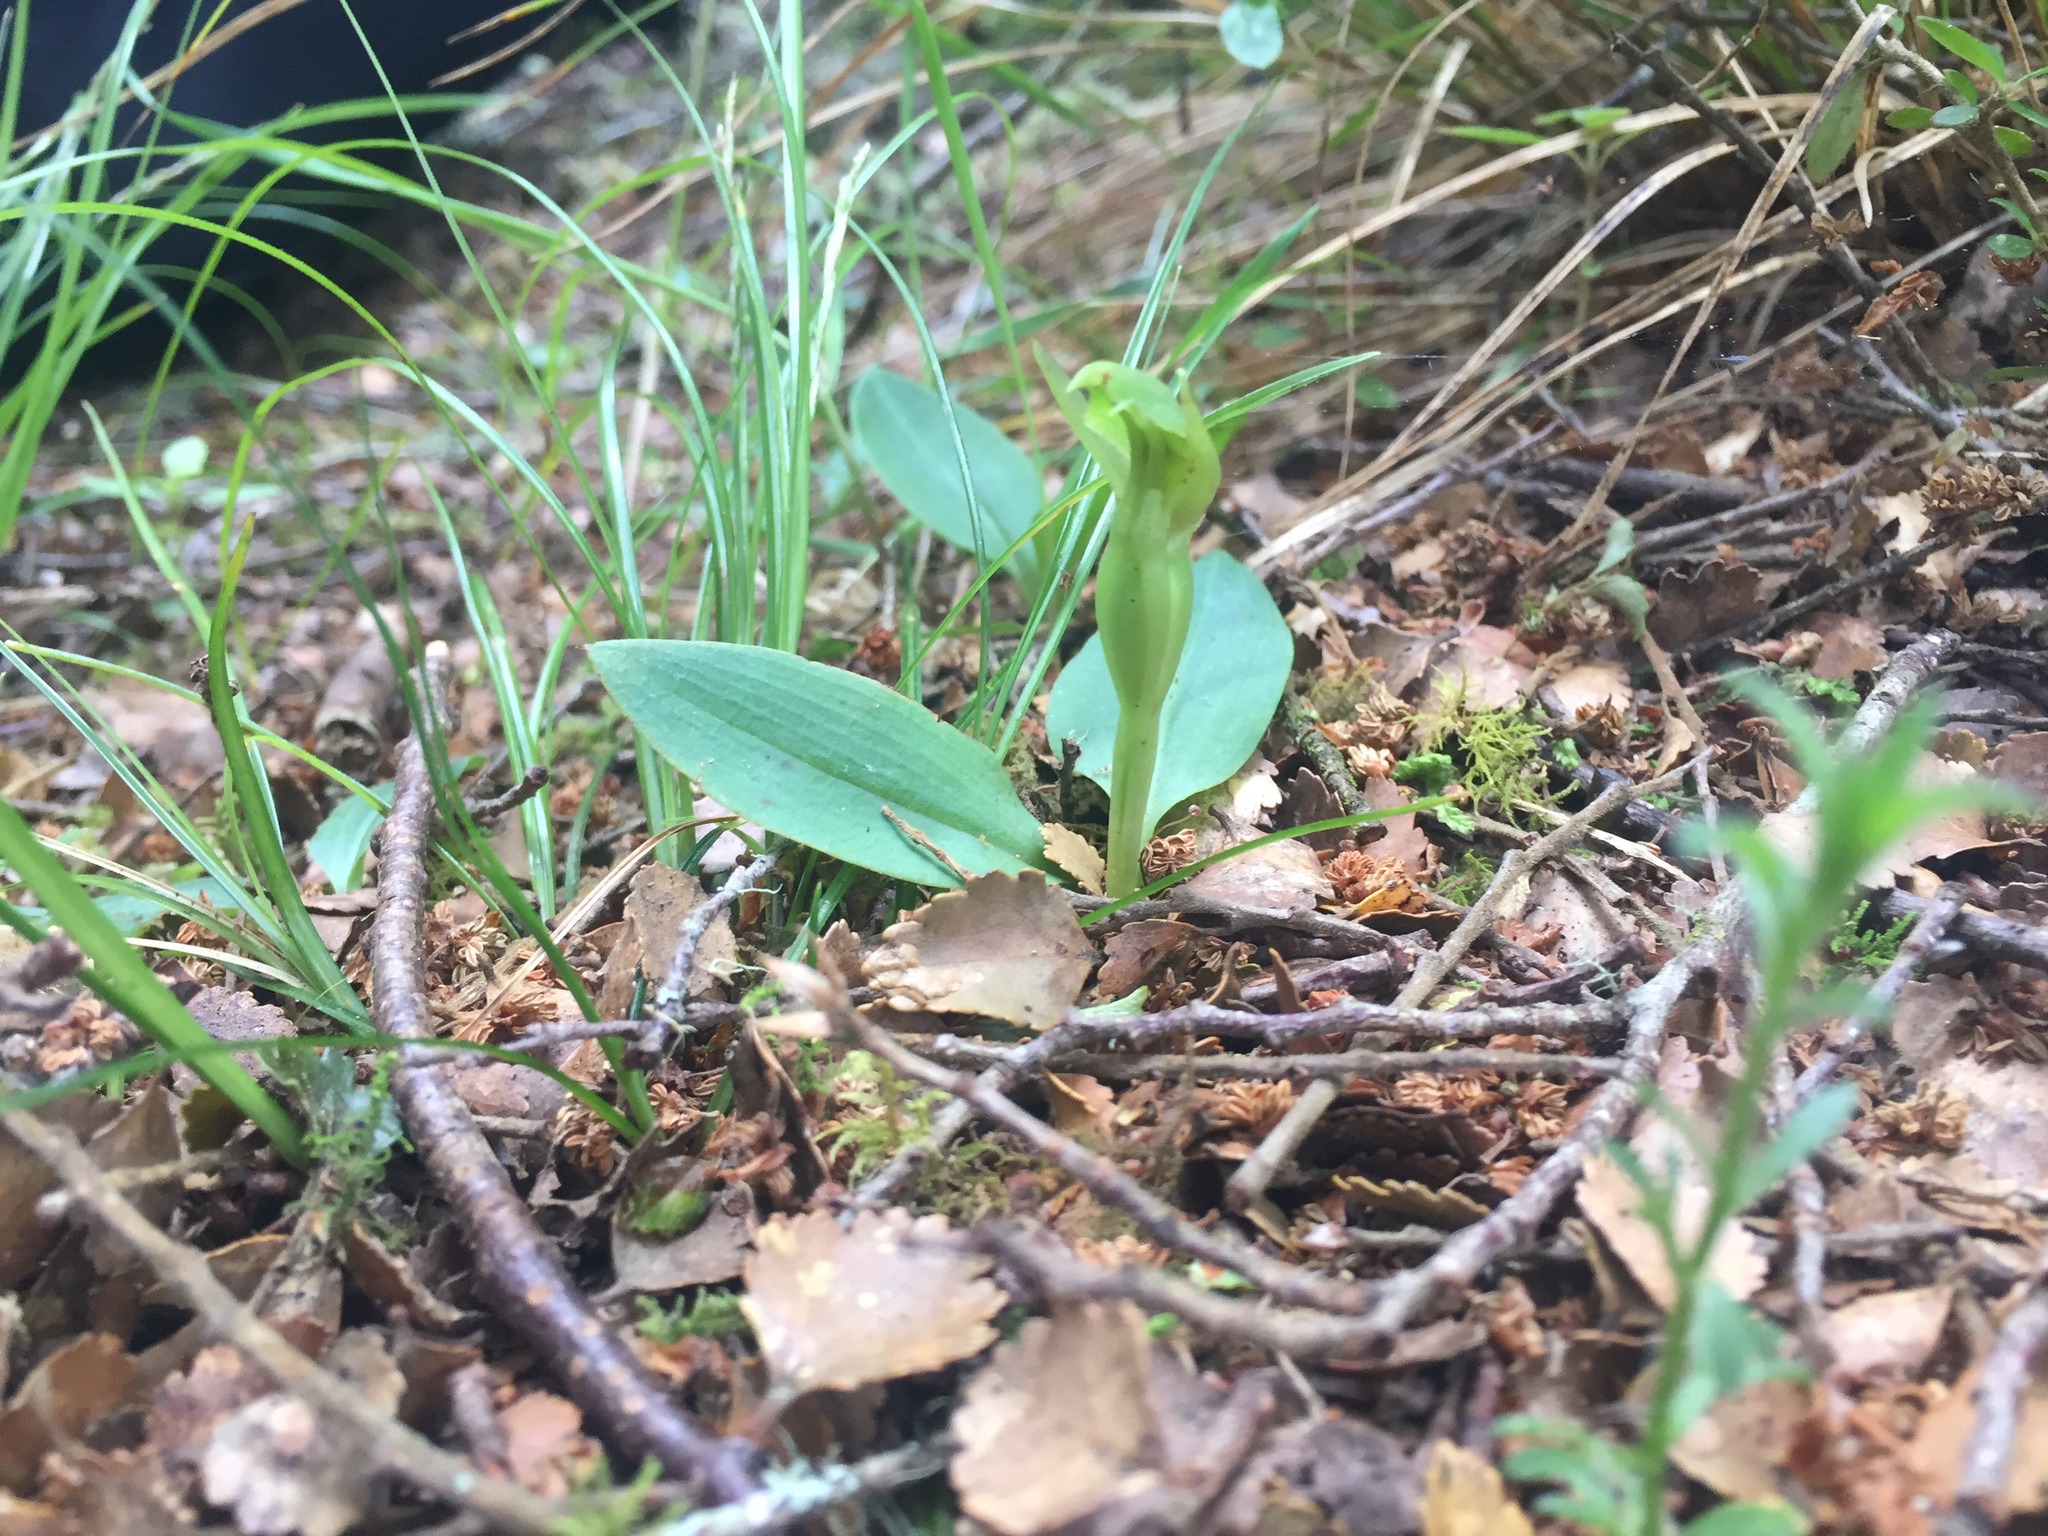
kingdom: Plantae
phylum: Tracheophyta
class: Liliopsida
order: Asparagales
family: Orchidaceae
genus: Chiloglottis
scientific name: Chiloglottis cornuta
